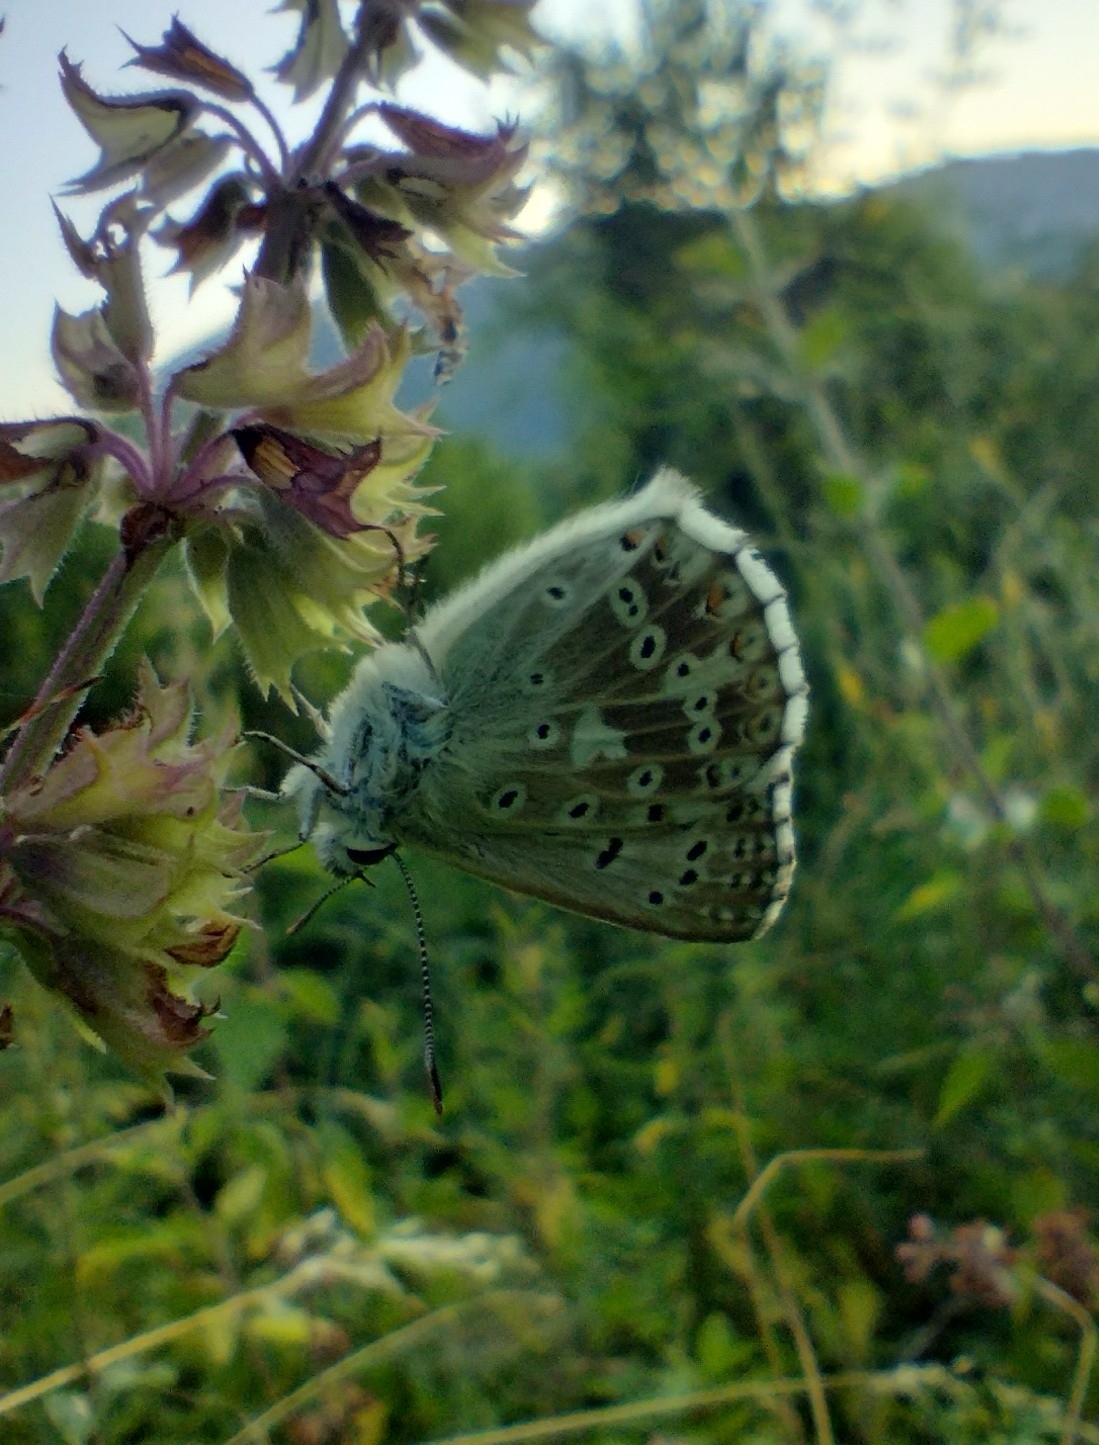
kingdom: Animalia
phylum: Arthropoda
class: Insecta
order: Lepidoptera
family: Lycaenidae
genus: Lysandra
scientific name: Lysandra coridon
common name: Chalkhill blue
